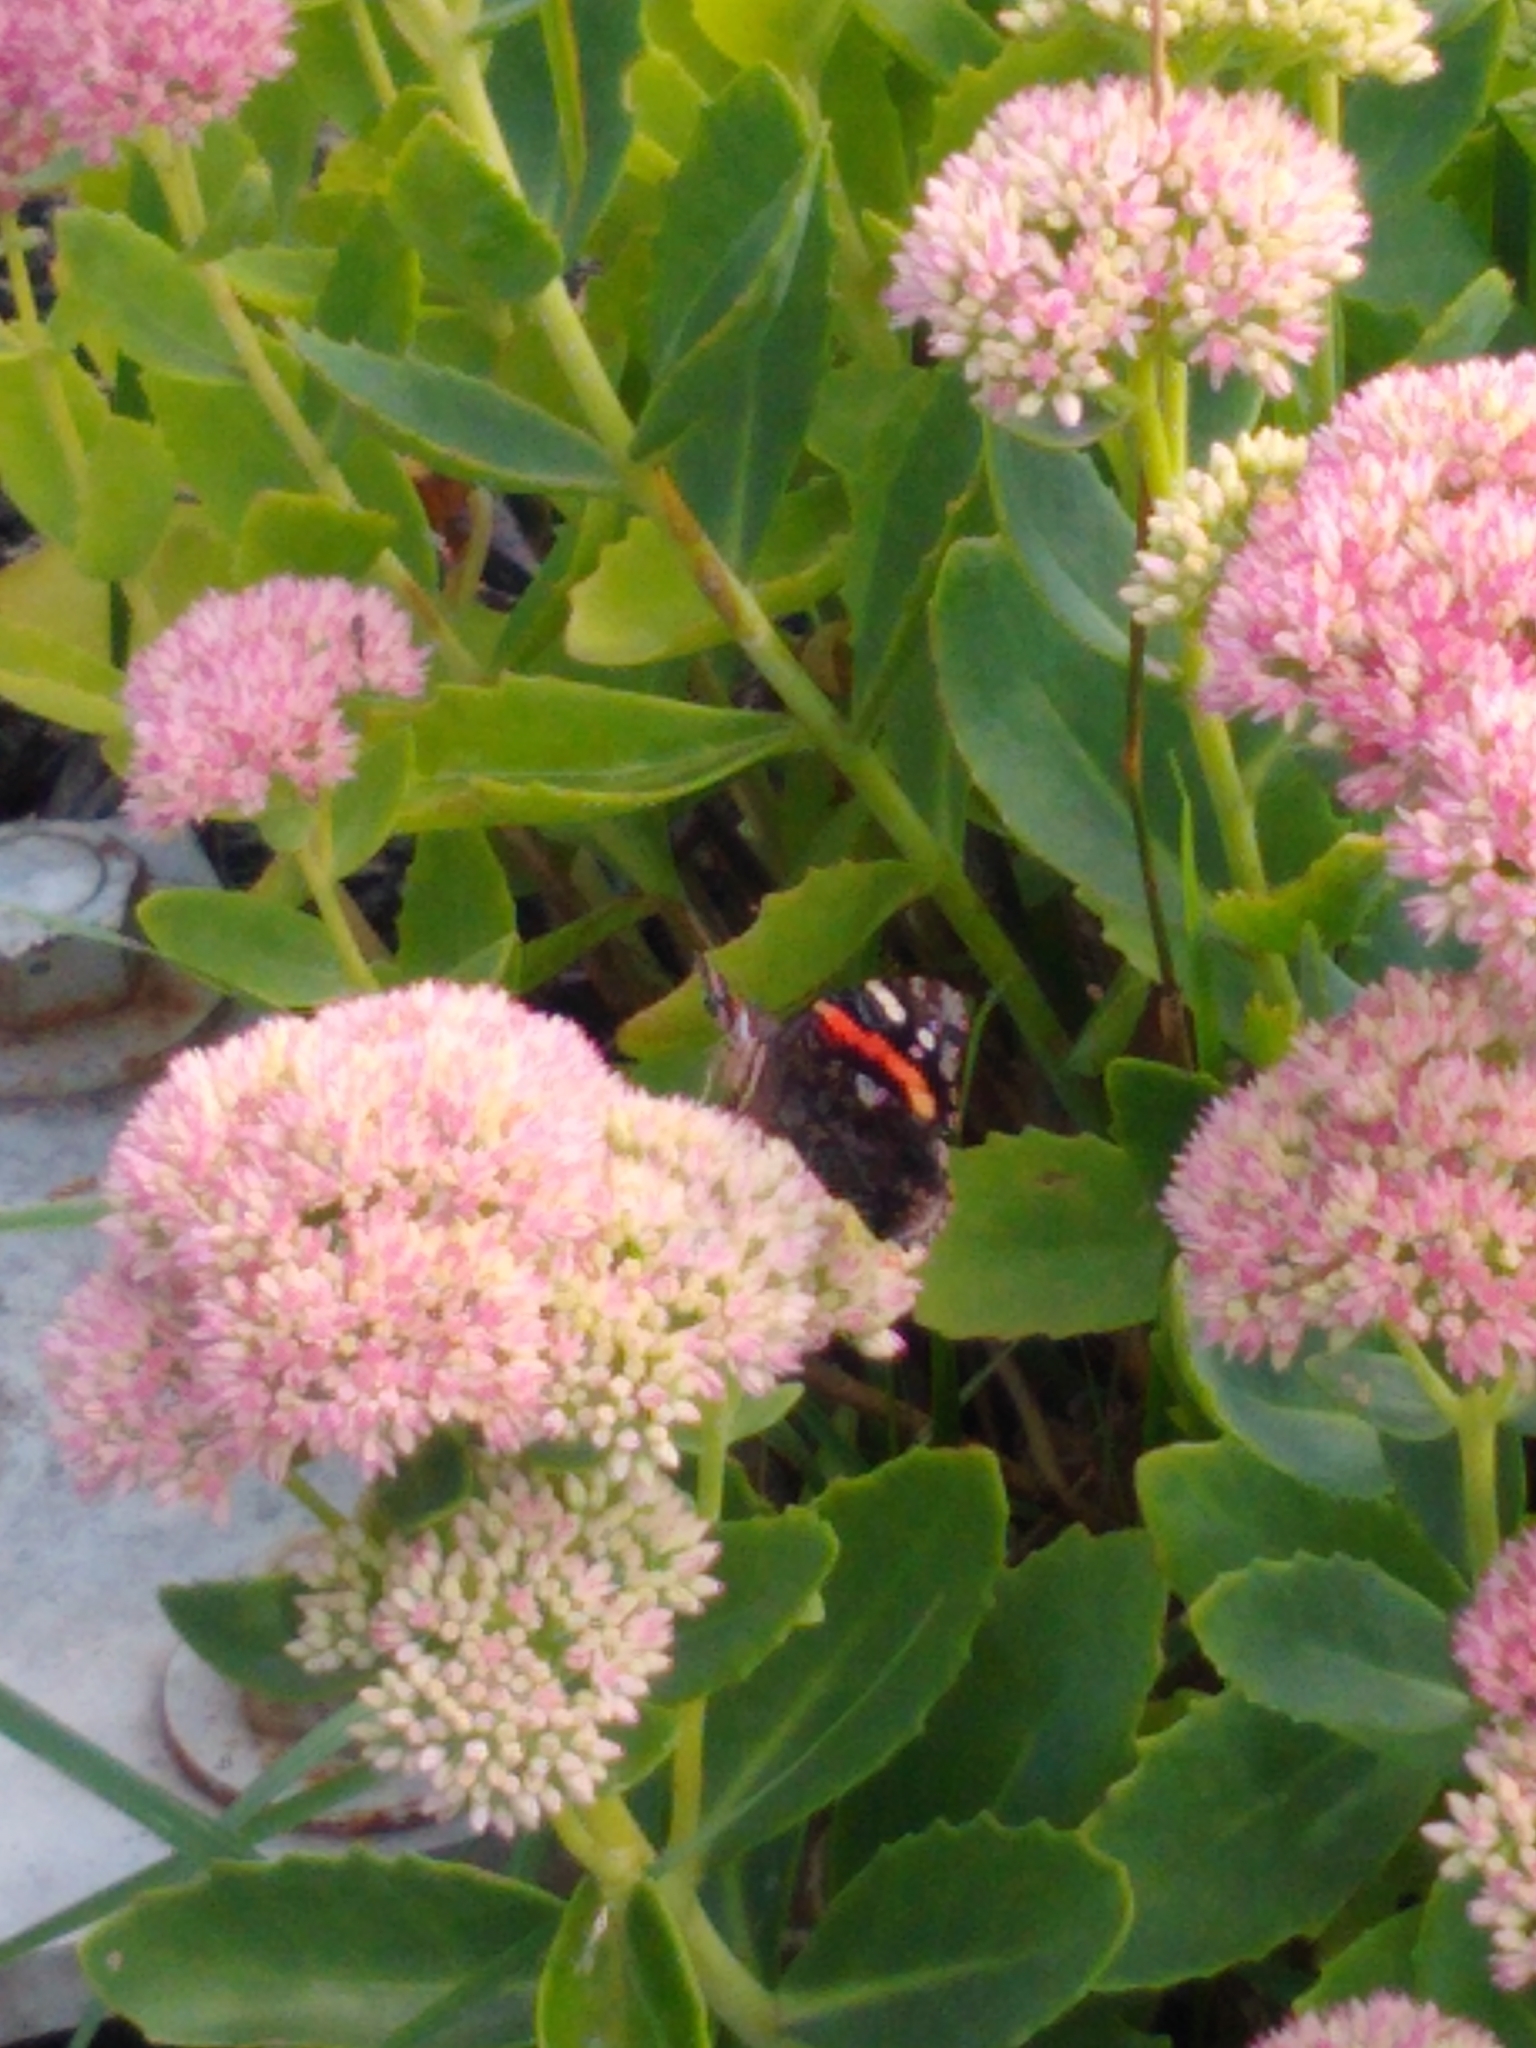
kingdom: Animalia
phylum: Arthropoda
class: Insecta
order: Lepidoptera
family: Nymphalidae
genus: Vanessa
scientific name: Vanessa atalanta
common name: Red admiral
